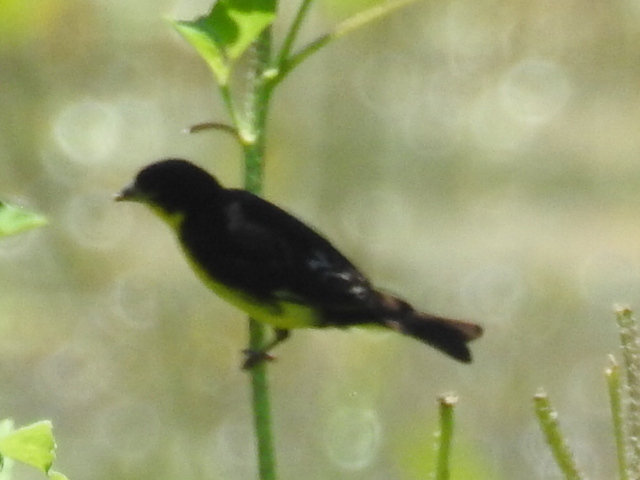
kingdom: Animalia
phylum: Chordata
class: Aves
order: Passeriformes
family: Fringillidae
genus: Spinus
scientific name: Spinus psaltria
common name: Lesser goldfinch
